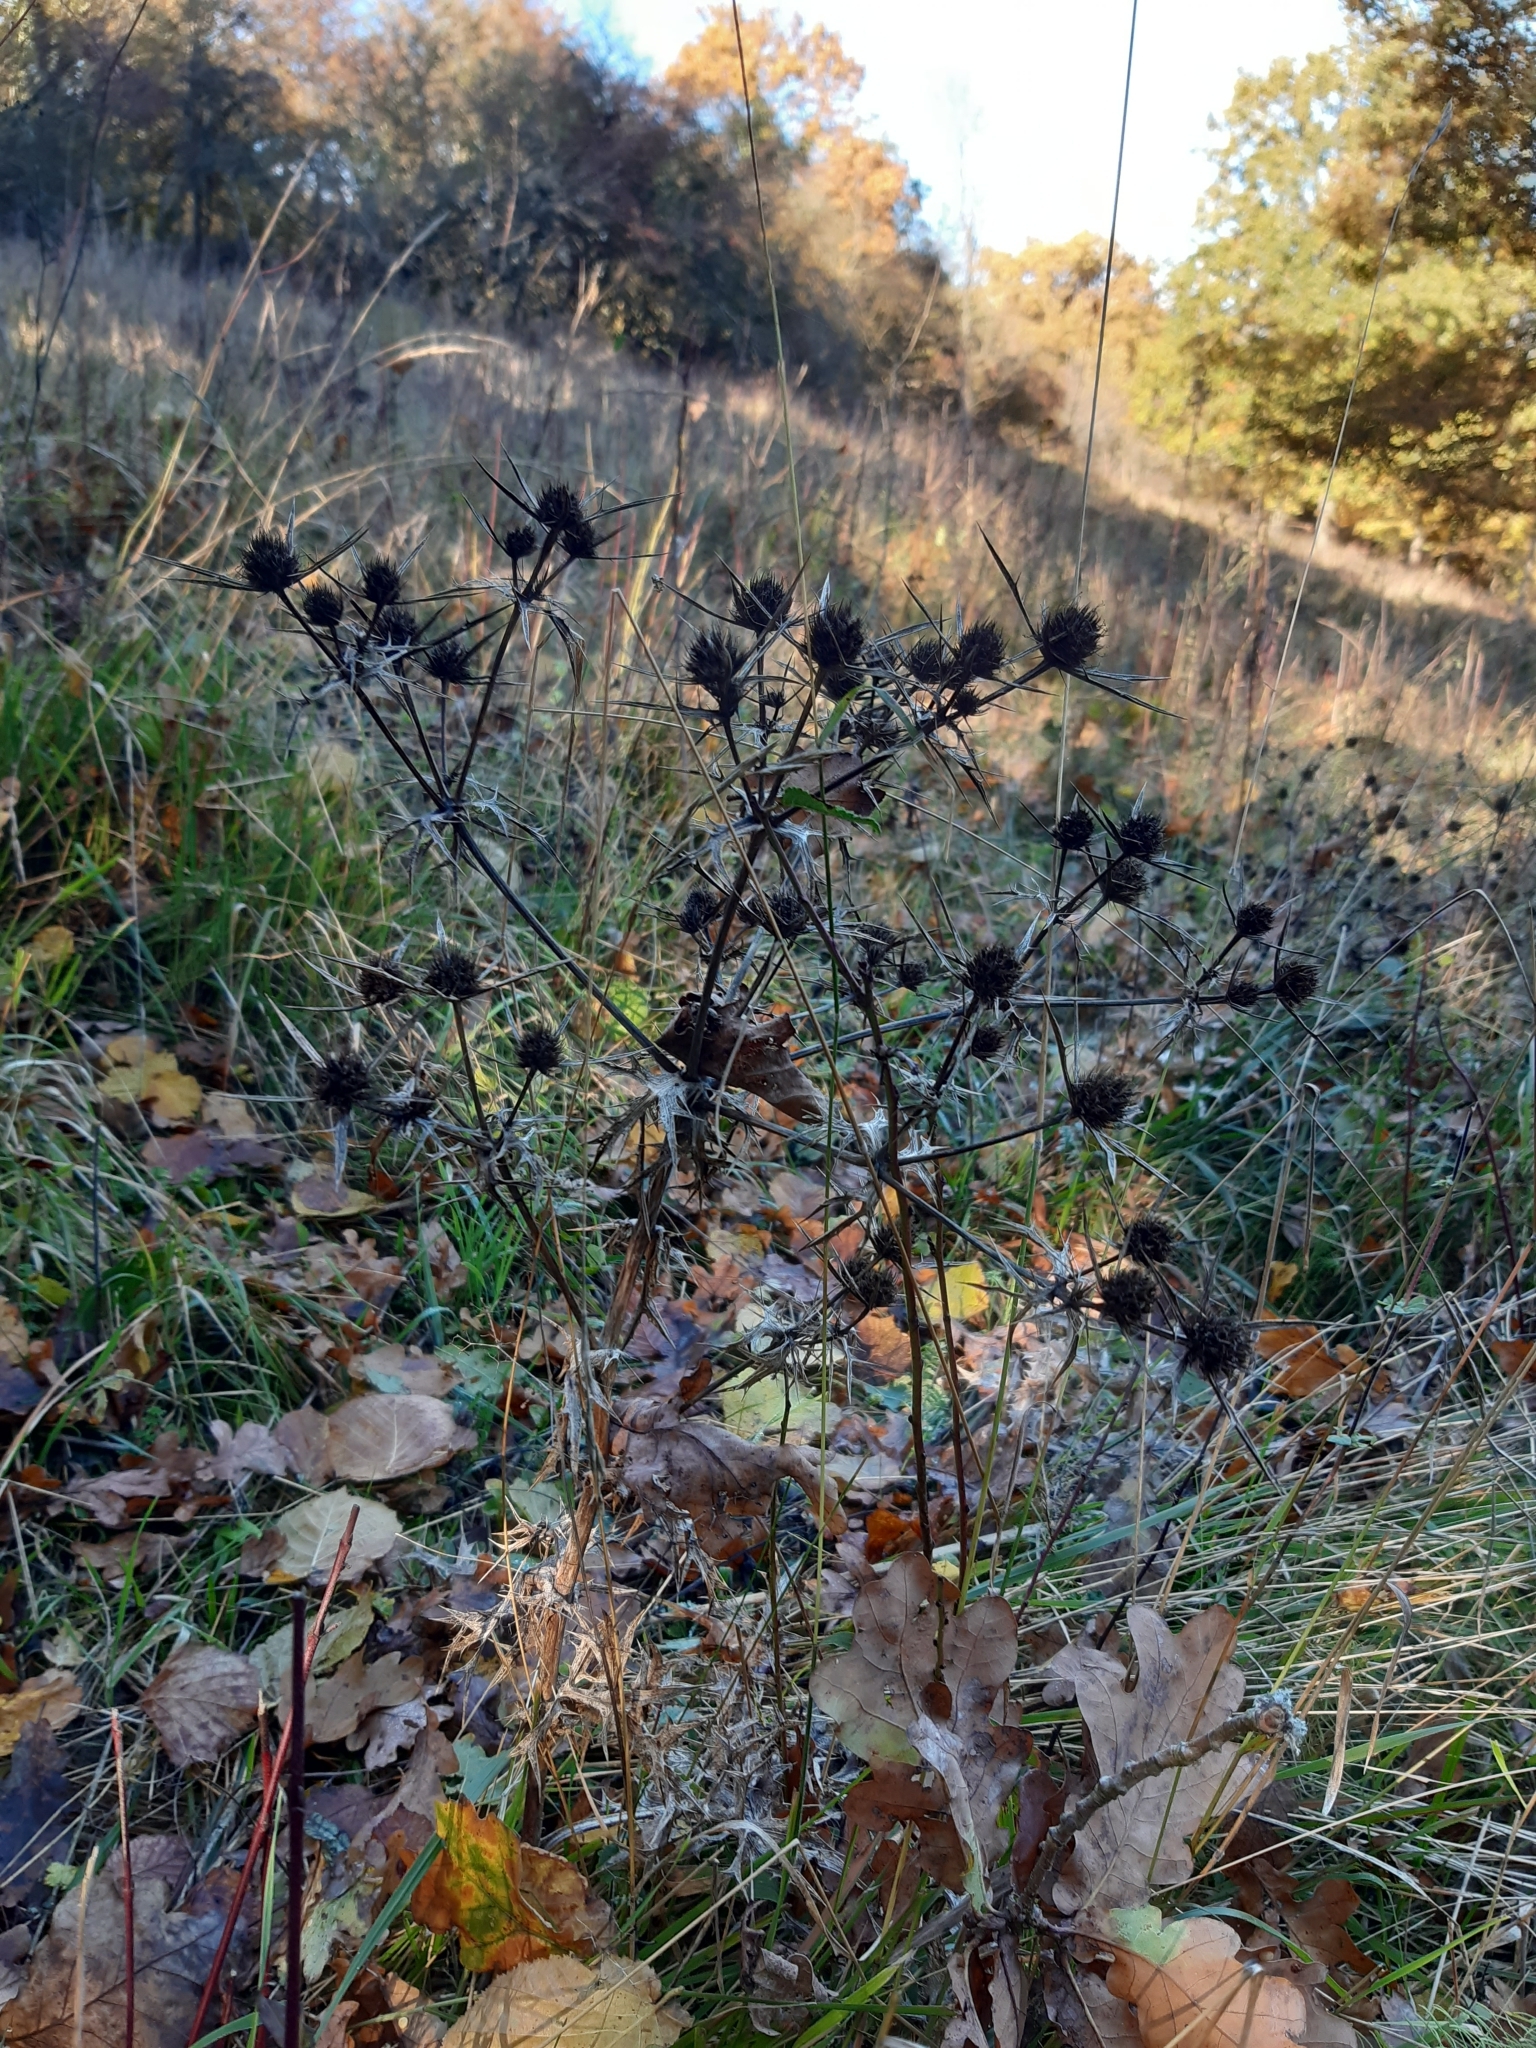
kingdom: Plantae
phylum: Tracheophyta
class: Magnoliopsida
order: Apiales
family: Apiaceae
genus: Eryngium
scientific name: Eryngium campestre
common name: Field eryngo
